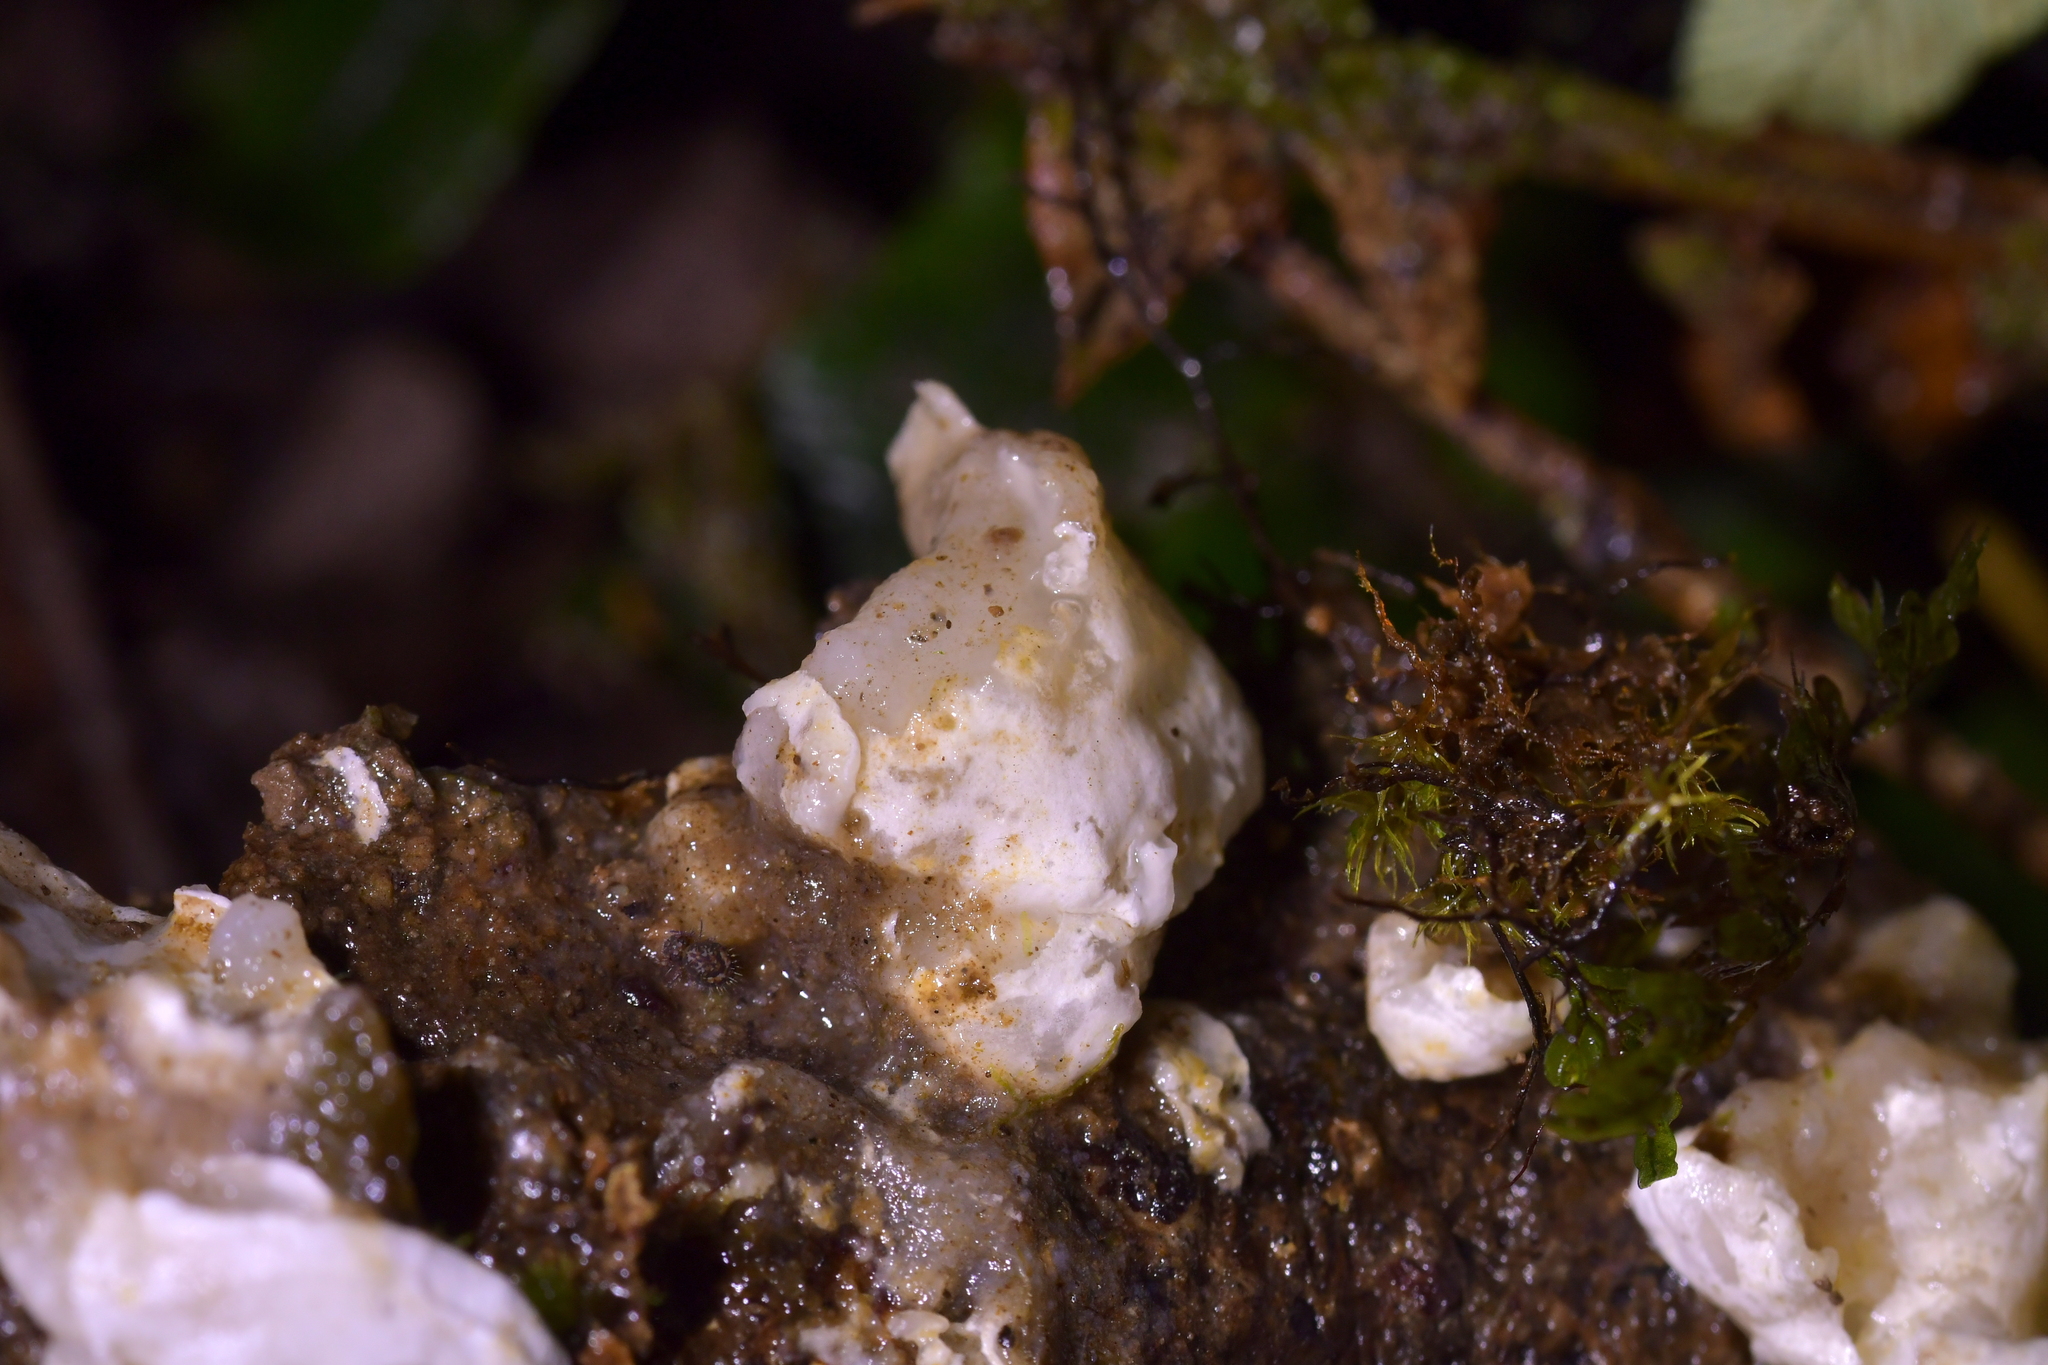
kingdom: Fungi
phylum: Basidiomycota
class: Agaricomycetes
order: Polyporales
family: Irpicaceae
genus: Gloeoporus
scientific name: Gloeoporus phlebophorus
